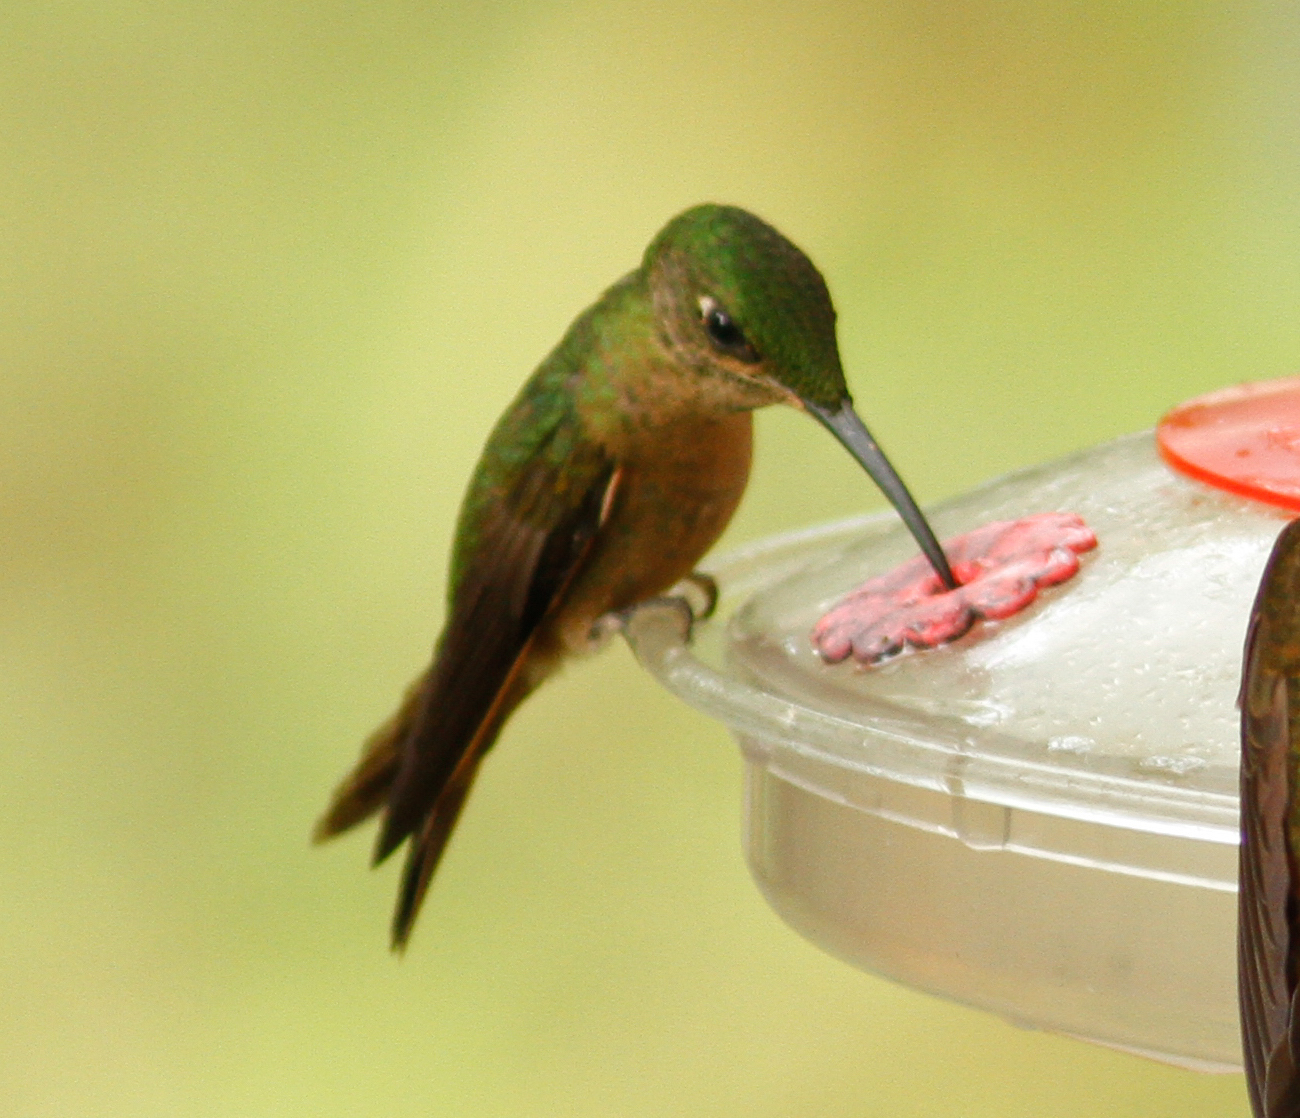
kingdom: Animalia
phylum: Chordata
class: Aves
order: Apodiformes
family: Trochilidae
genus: Heliodoxa
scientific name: Heliodoxa rubinoides
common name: Fawn-breasted brilliant
